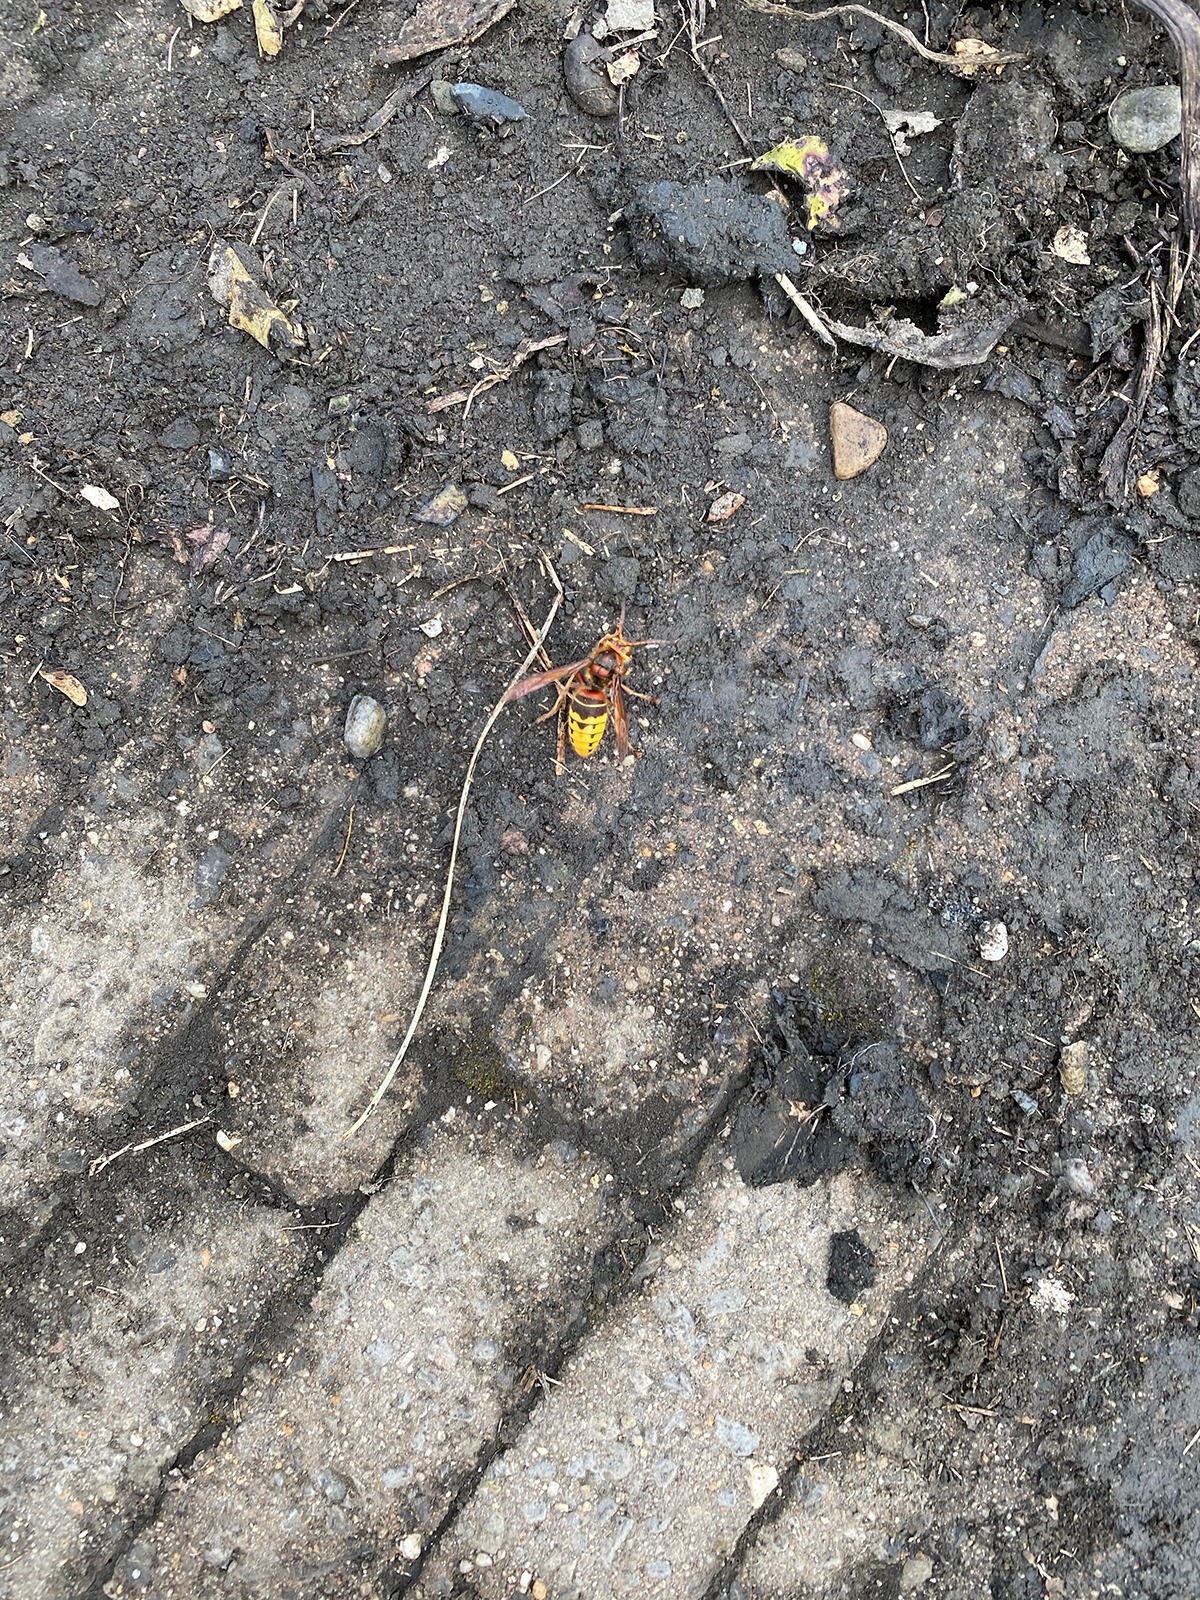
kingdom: Animalia
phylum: Arthropoda
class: Insecta
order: Hymenoptera
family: Vespidae
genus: Vespa
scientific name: Vespa crabro
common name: Hornet
